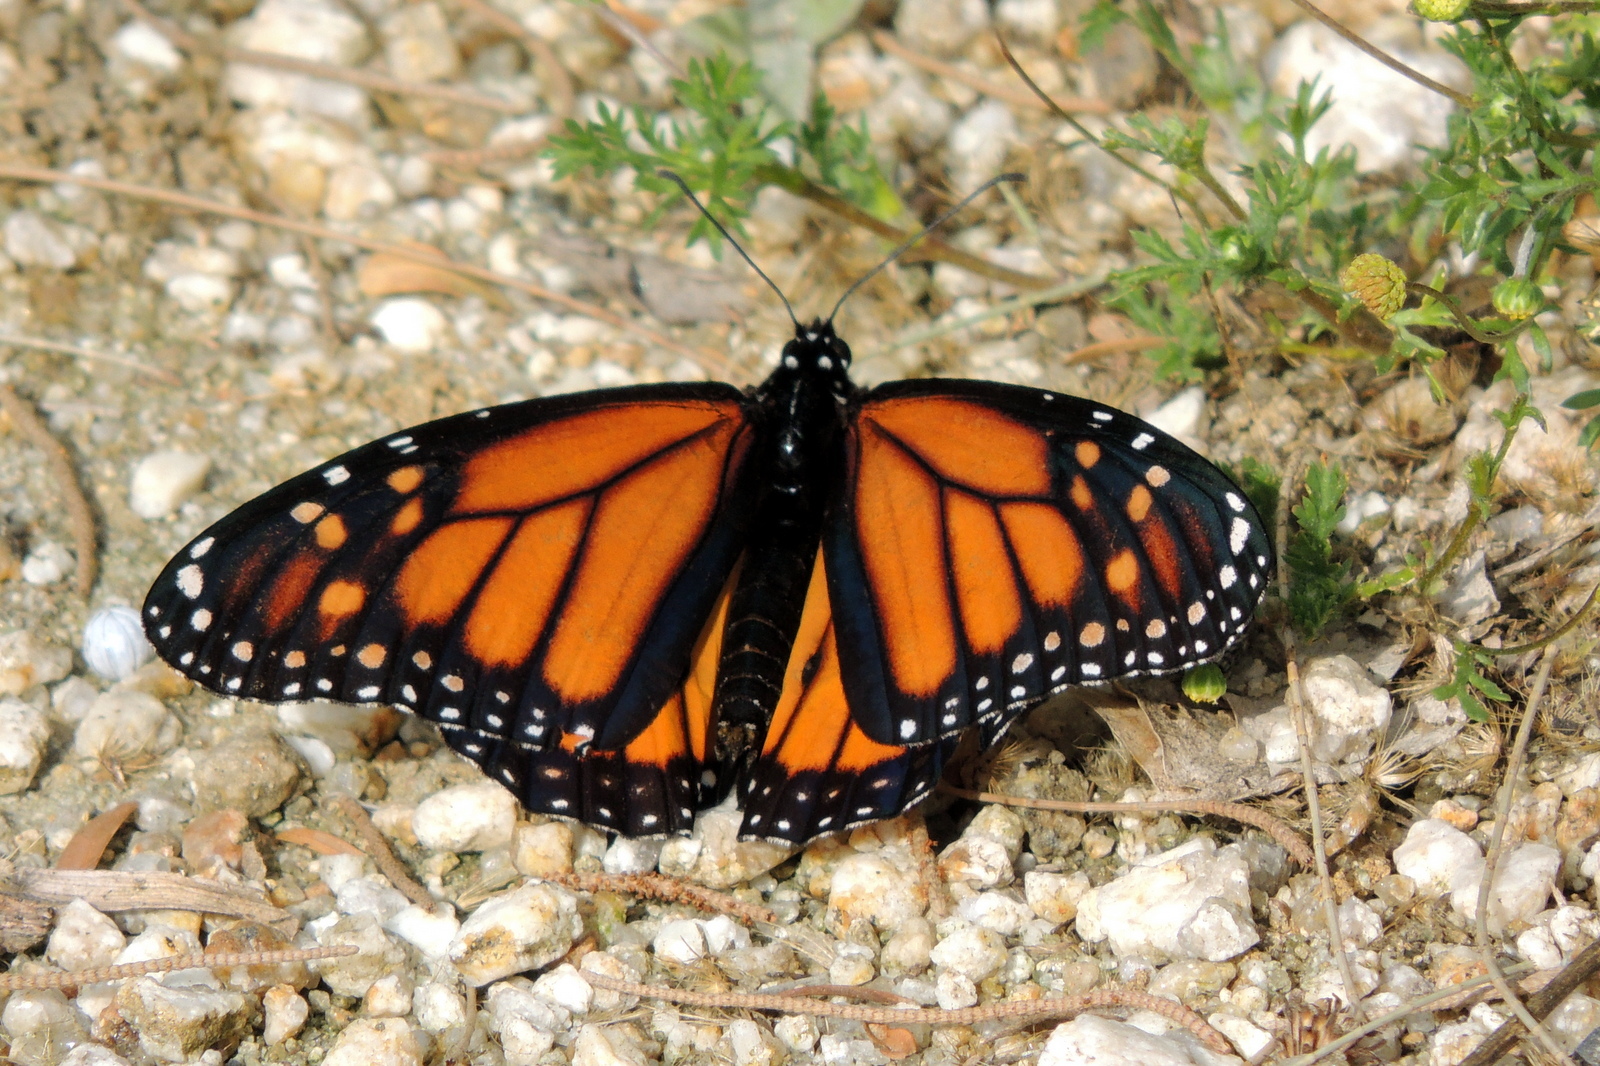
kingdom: Animalia
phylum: Arthropoda
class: Insecta
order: Lepidoptera
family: Nymphalidae
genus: Danaus
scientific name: Danaus plexippus
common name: Monarch
